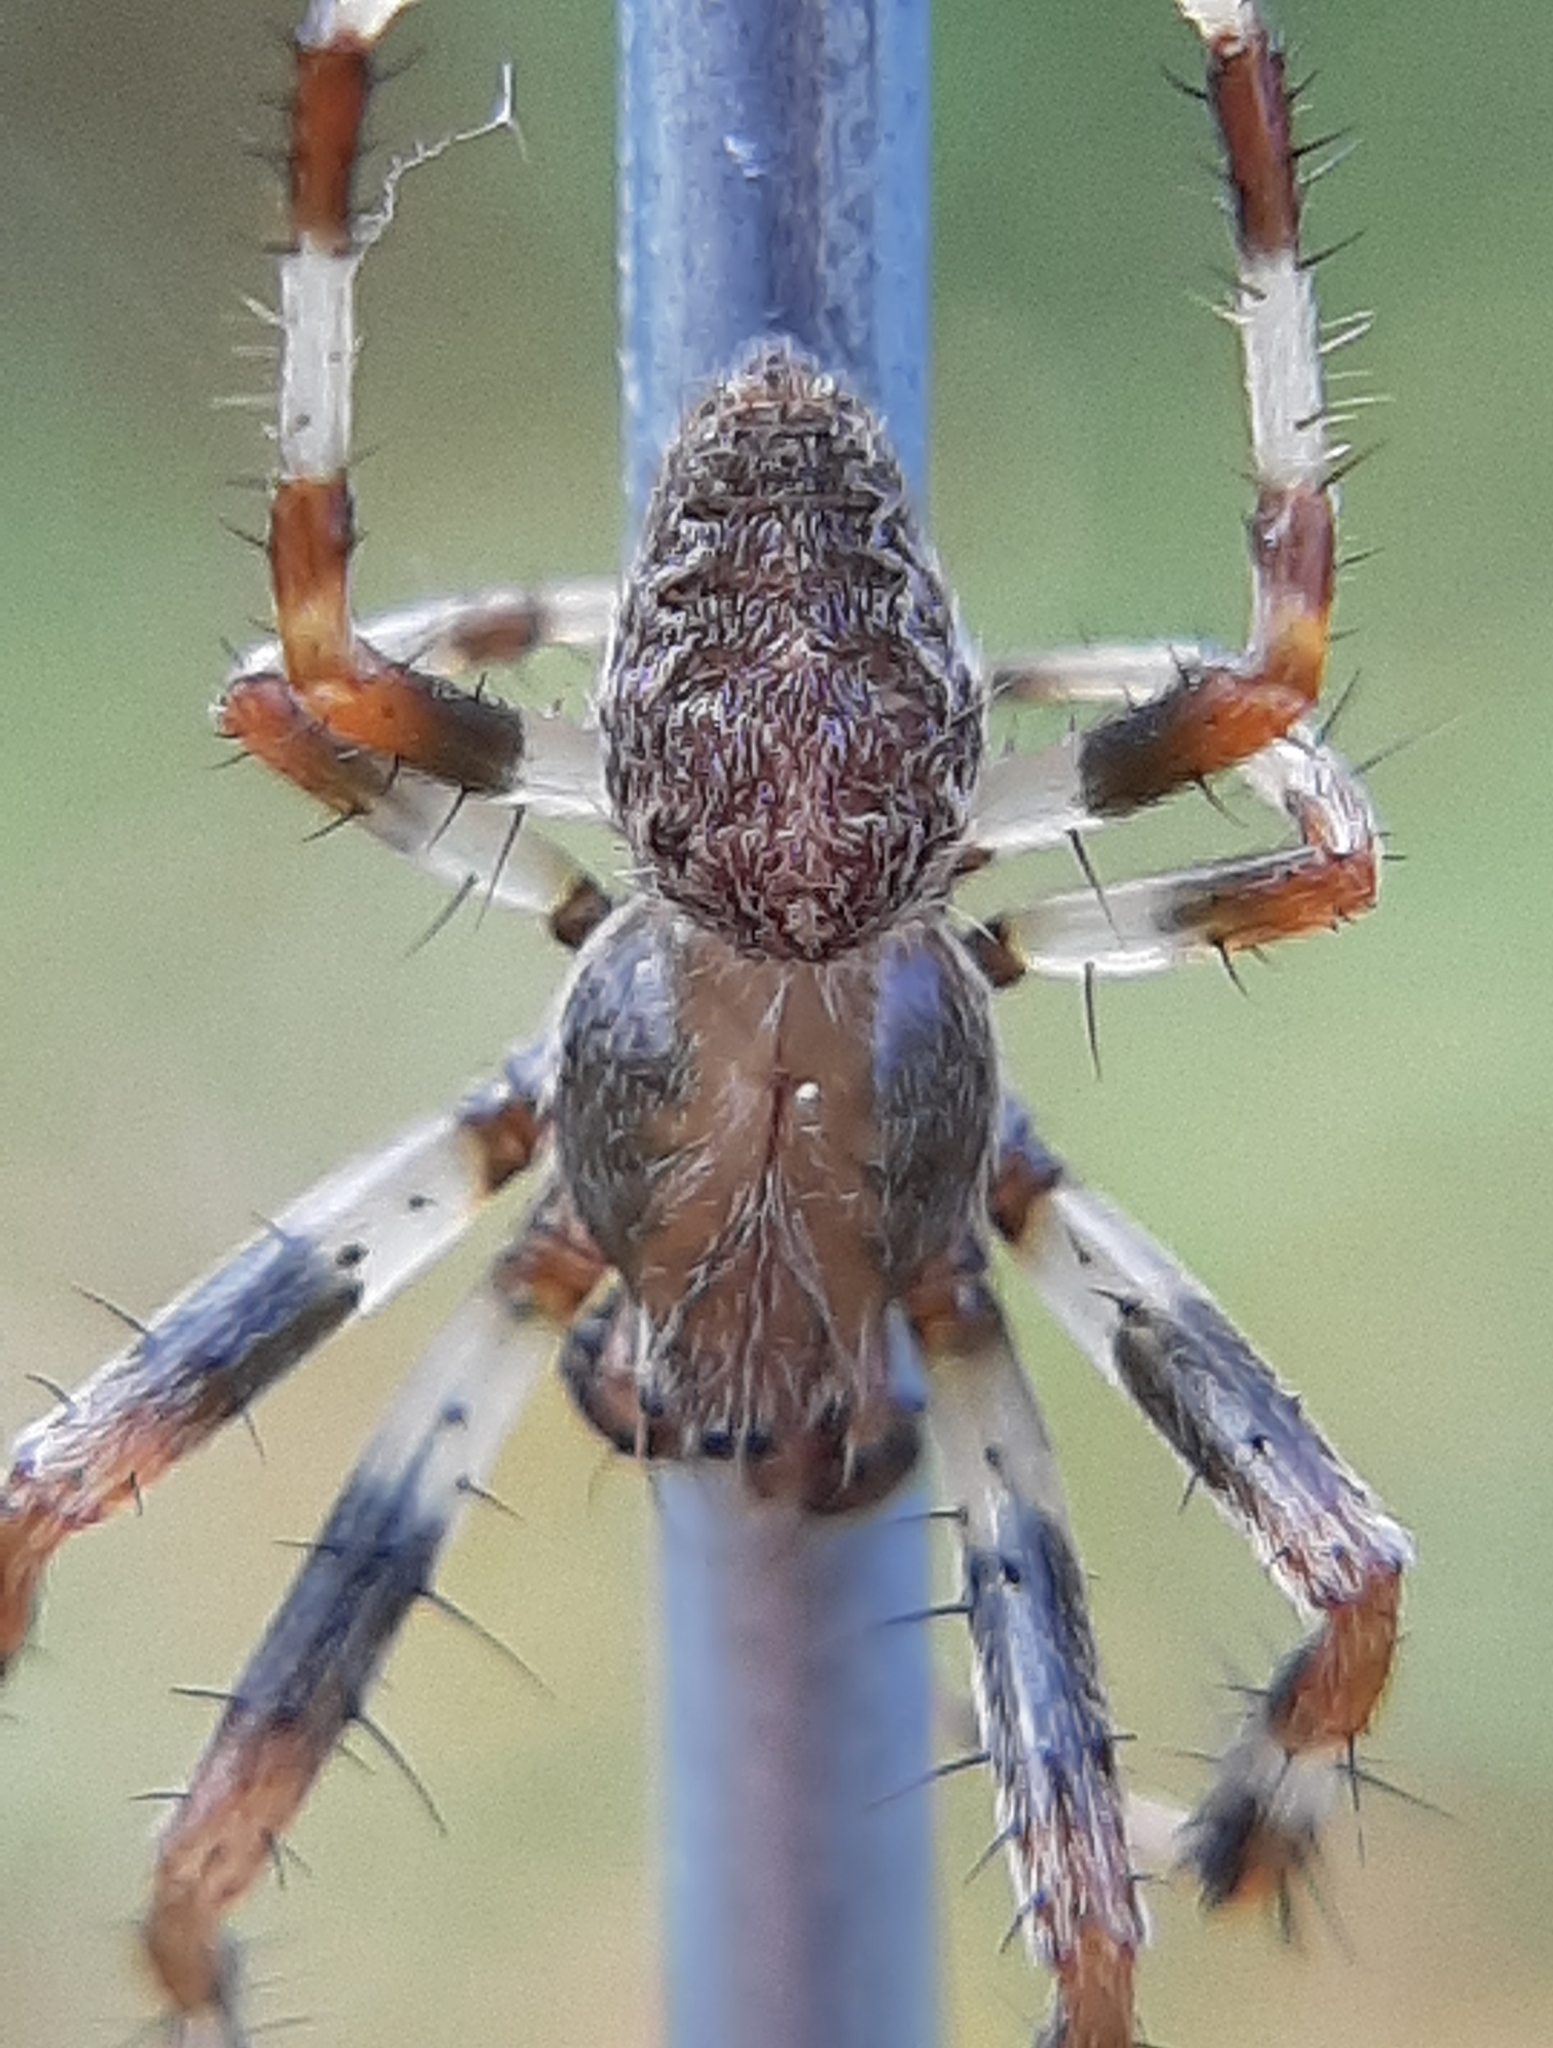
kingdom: Animalia
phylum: Arthropoda
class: Arachnida
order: Araneae
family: Araneidae
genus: Araneus
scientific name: Araneus marmoreus
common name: Marbled orbweaver
